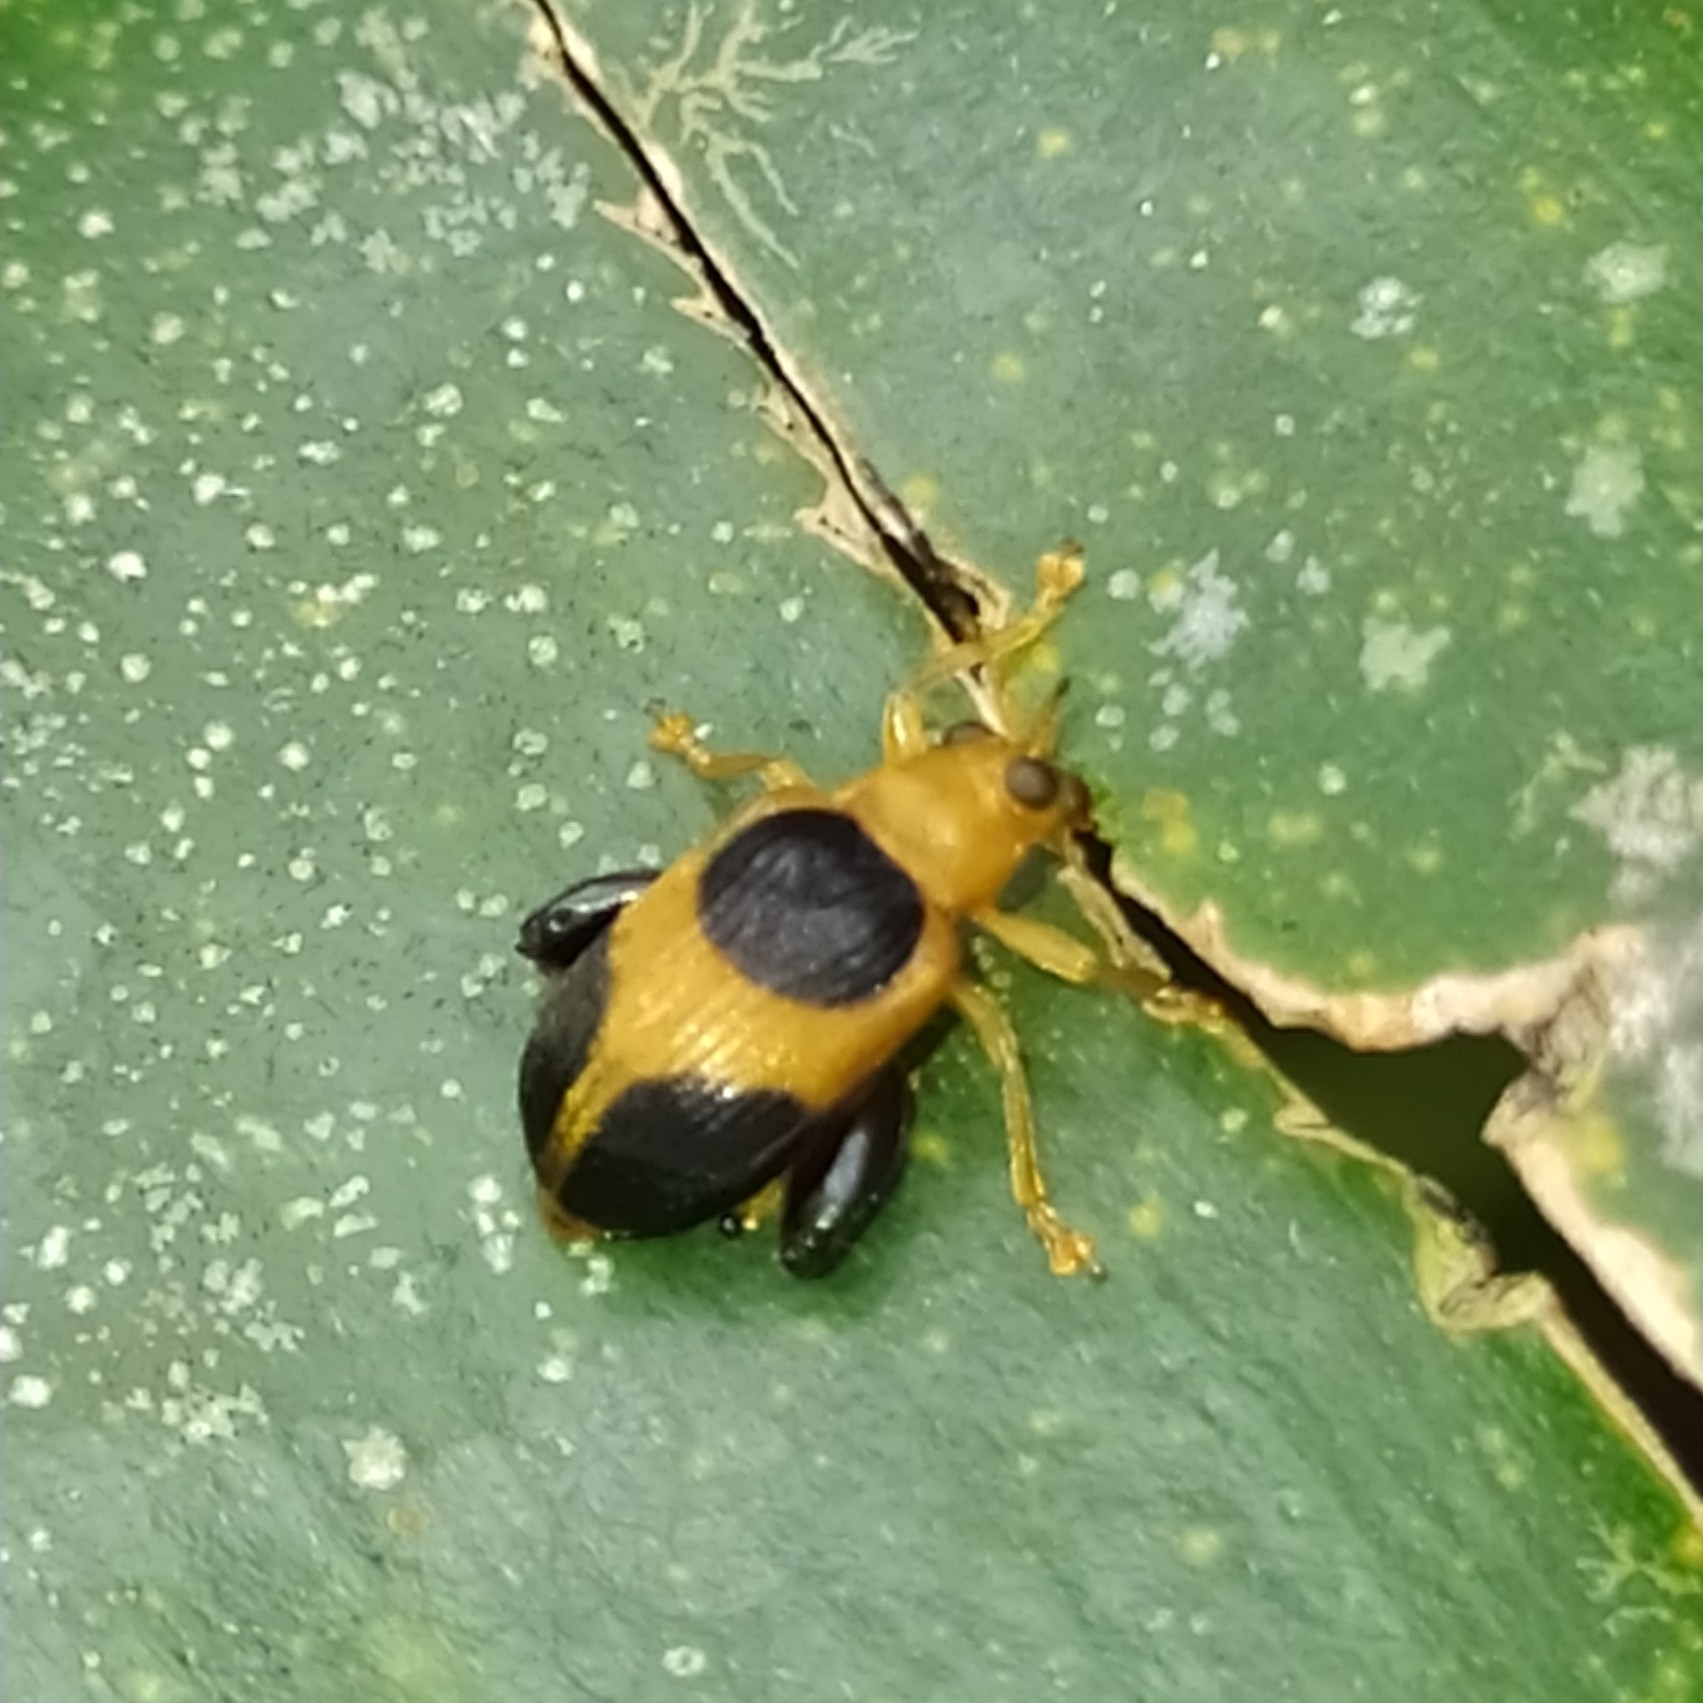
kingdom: Animalia
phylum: Arthropoda
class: Insecta
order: Coleoptera
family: Chrysomelidae
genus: Allochroma
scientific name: Allochroma lunatum
